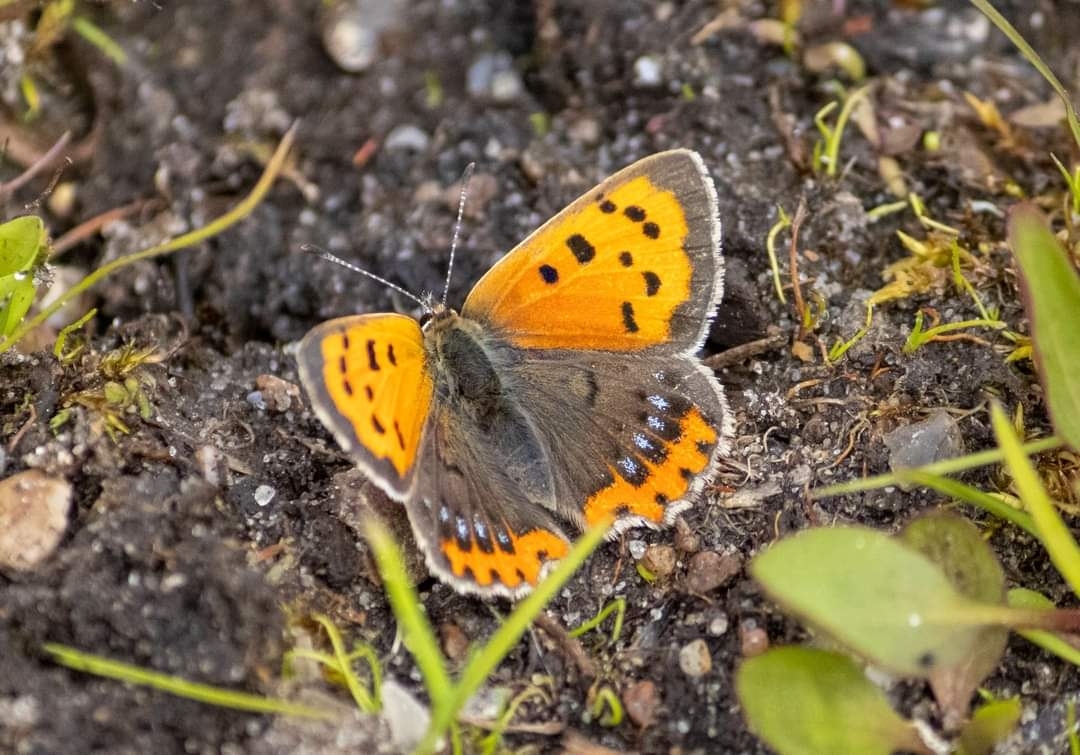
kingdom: Animalia
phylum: Arthropoda
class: Insecta
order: Lepidoptera
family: Lycaenidae
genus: Lycaena
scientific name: Lycaena phlaeas
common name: Small copper
